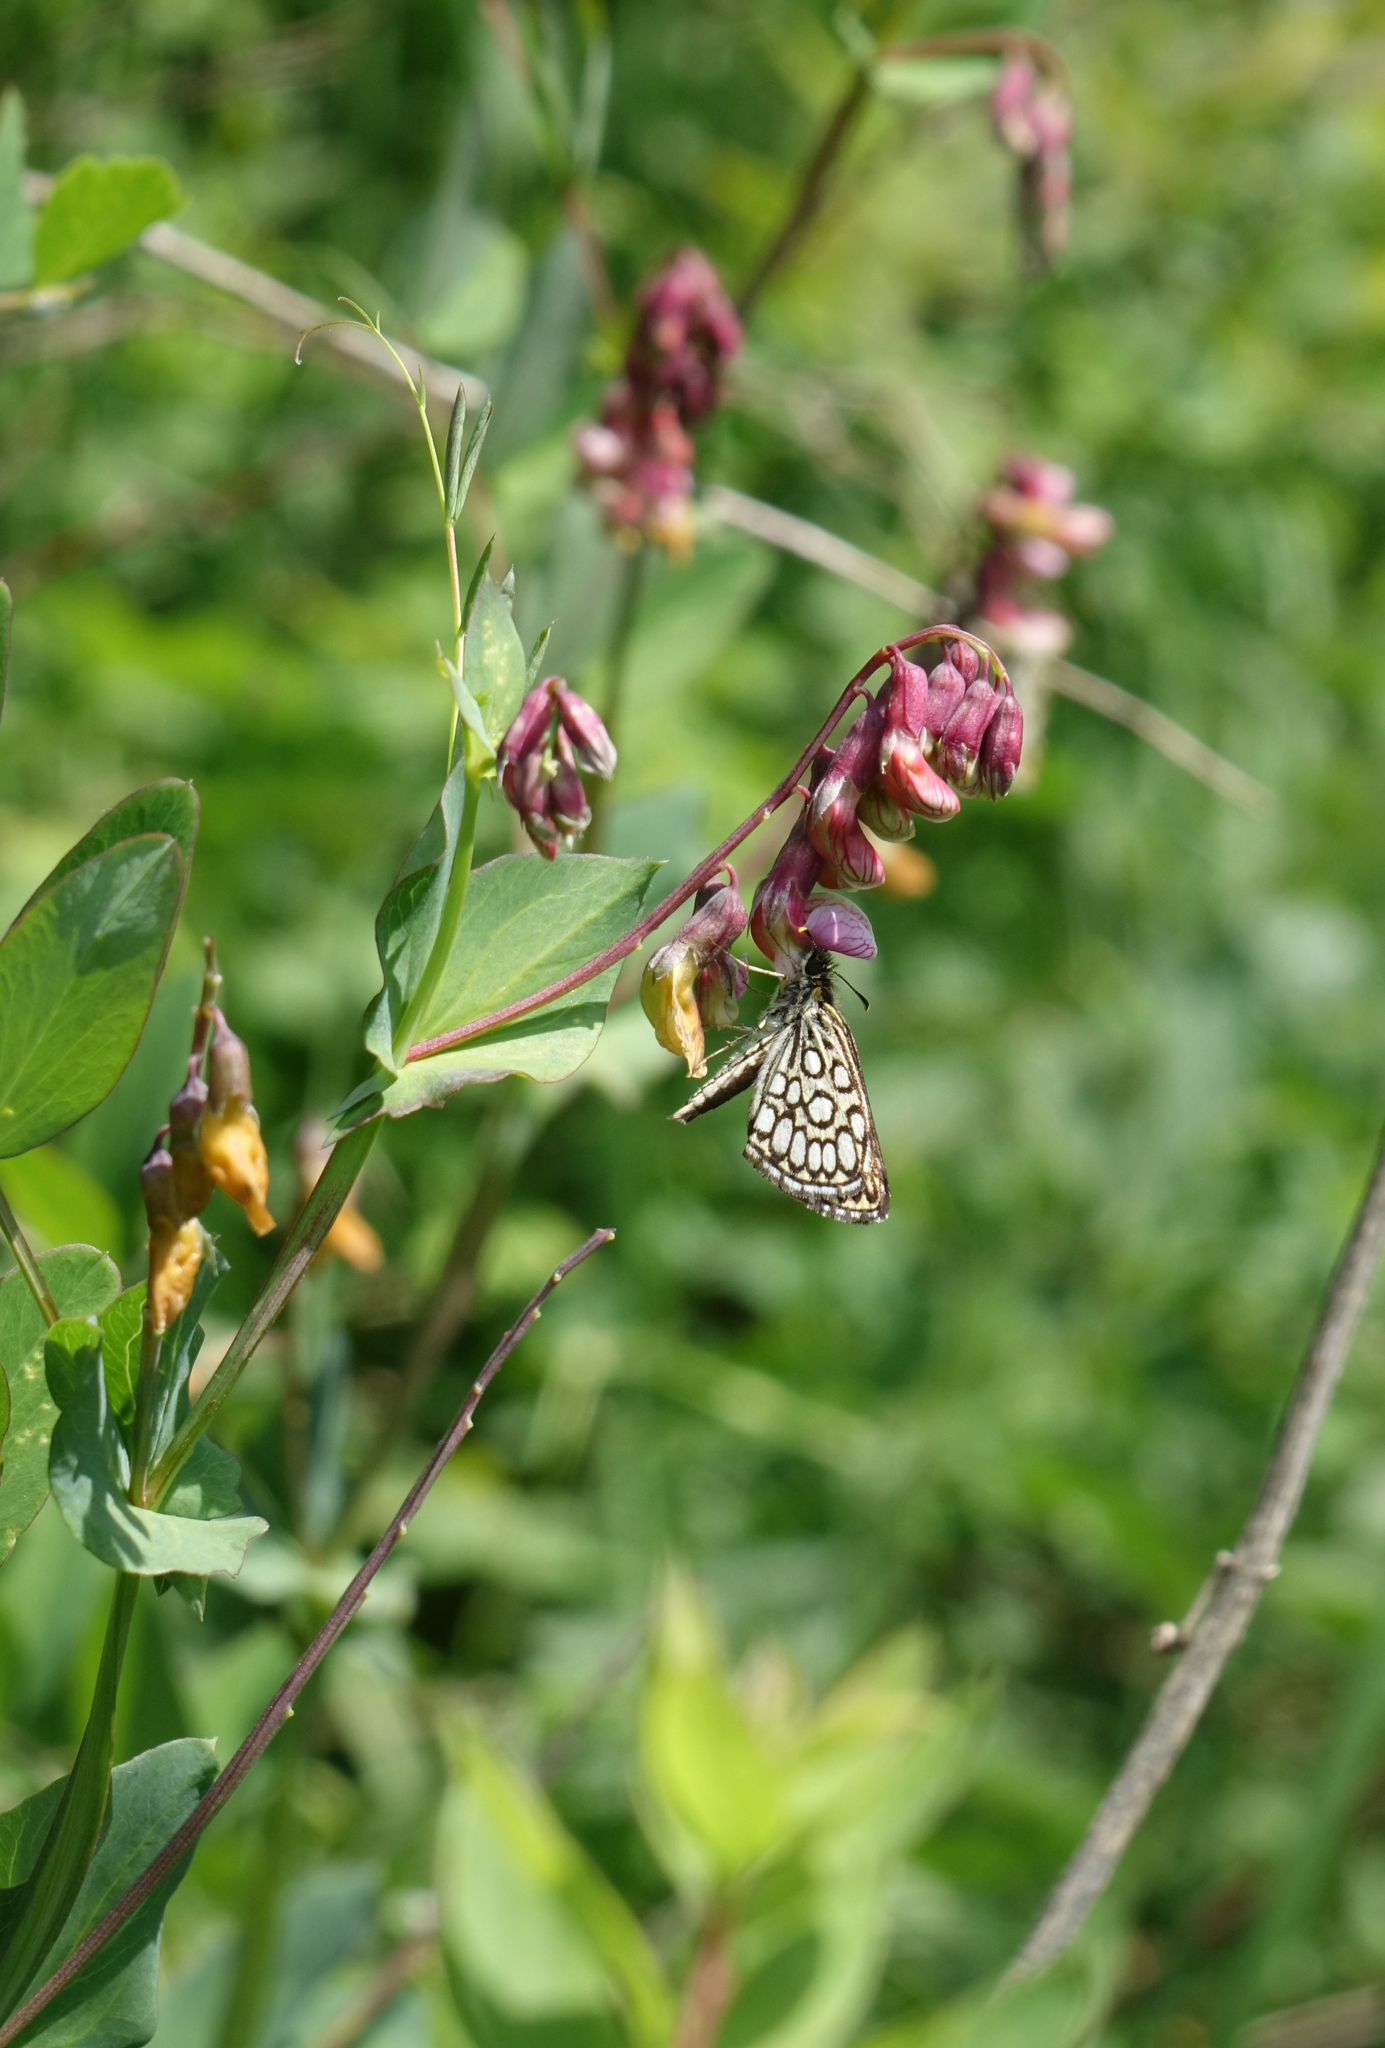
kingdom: Plantae
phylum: Tracheophyta
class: Magnoliopsida
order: Fabales
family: Fabaceae
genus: Lathyrus
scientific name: Lathyrus pisiformis
